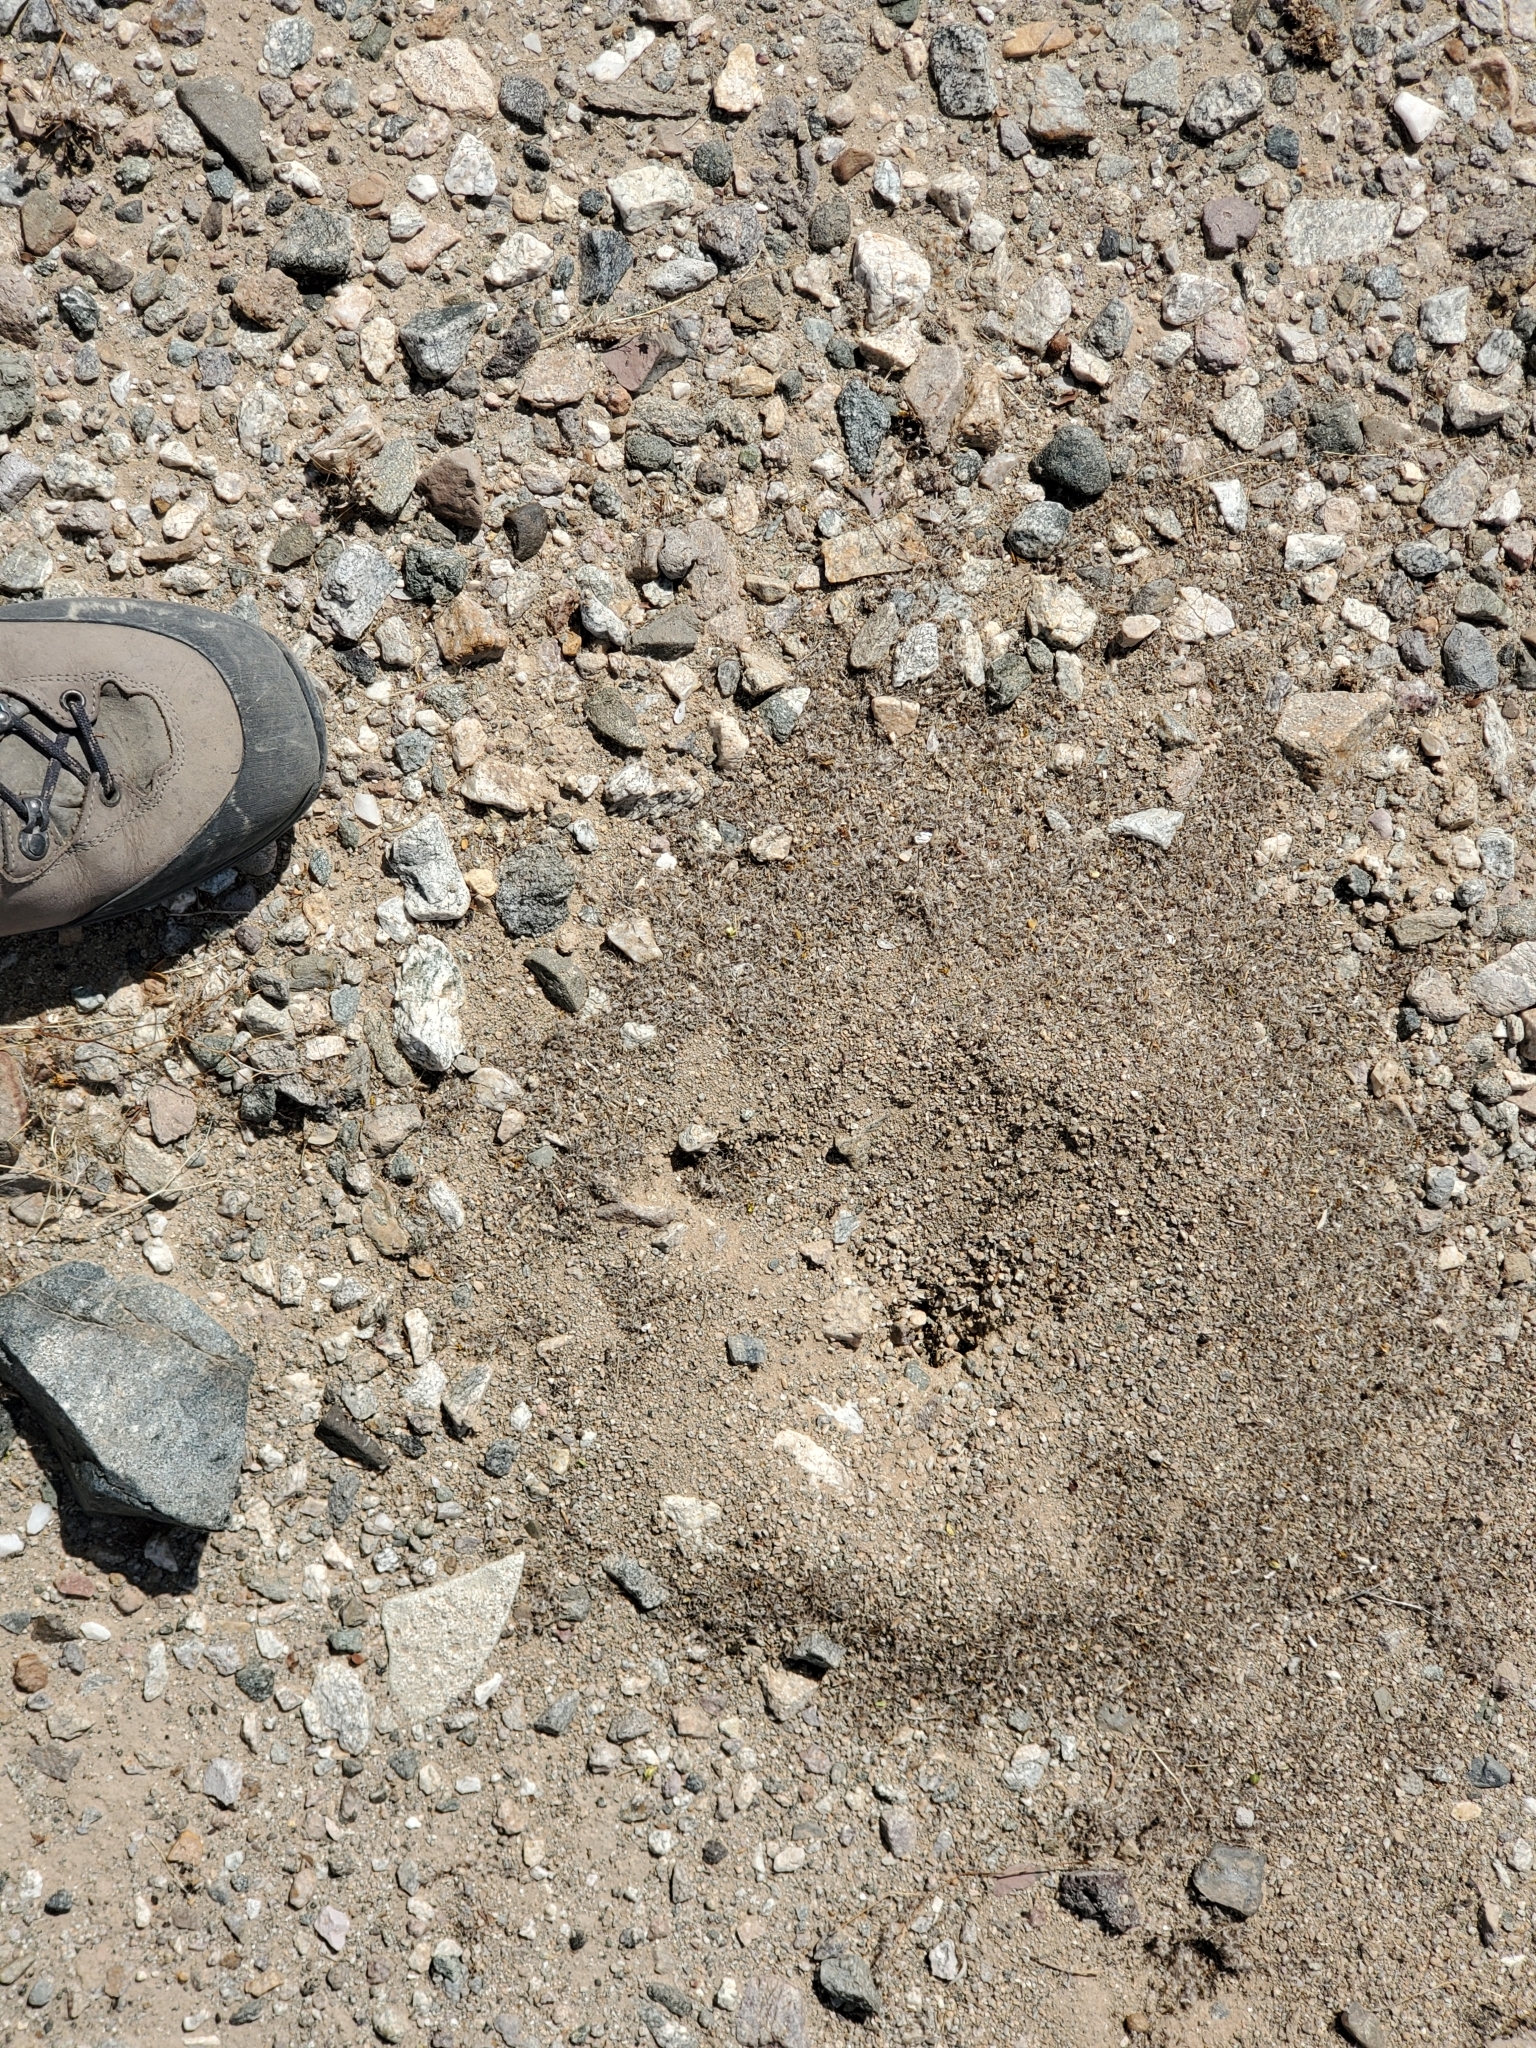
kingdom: Animalia
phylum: Arthropoda
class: Insecta
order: Hymenoptera
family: Formicidae
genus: Messor
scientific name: Messor pergandei
